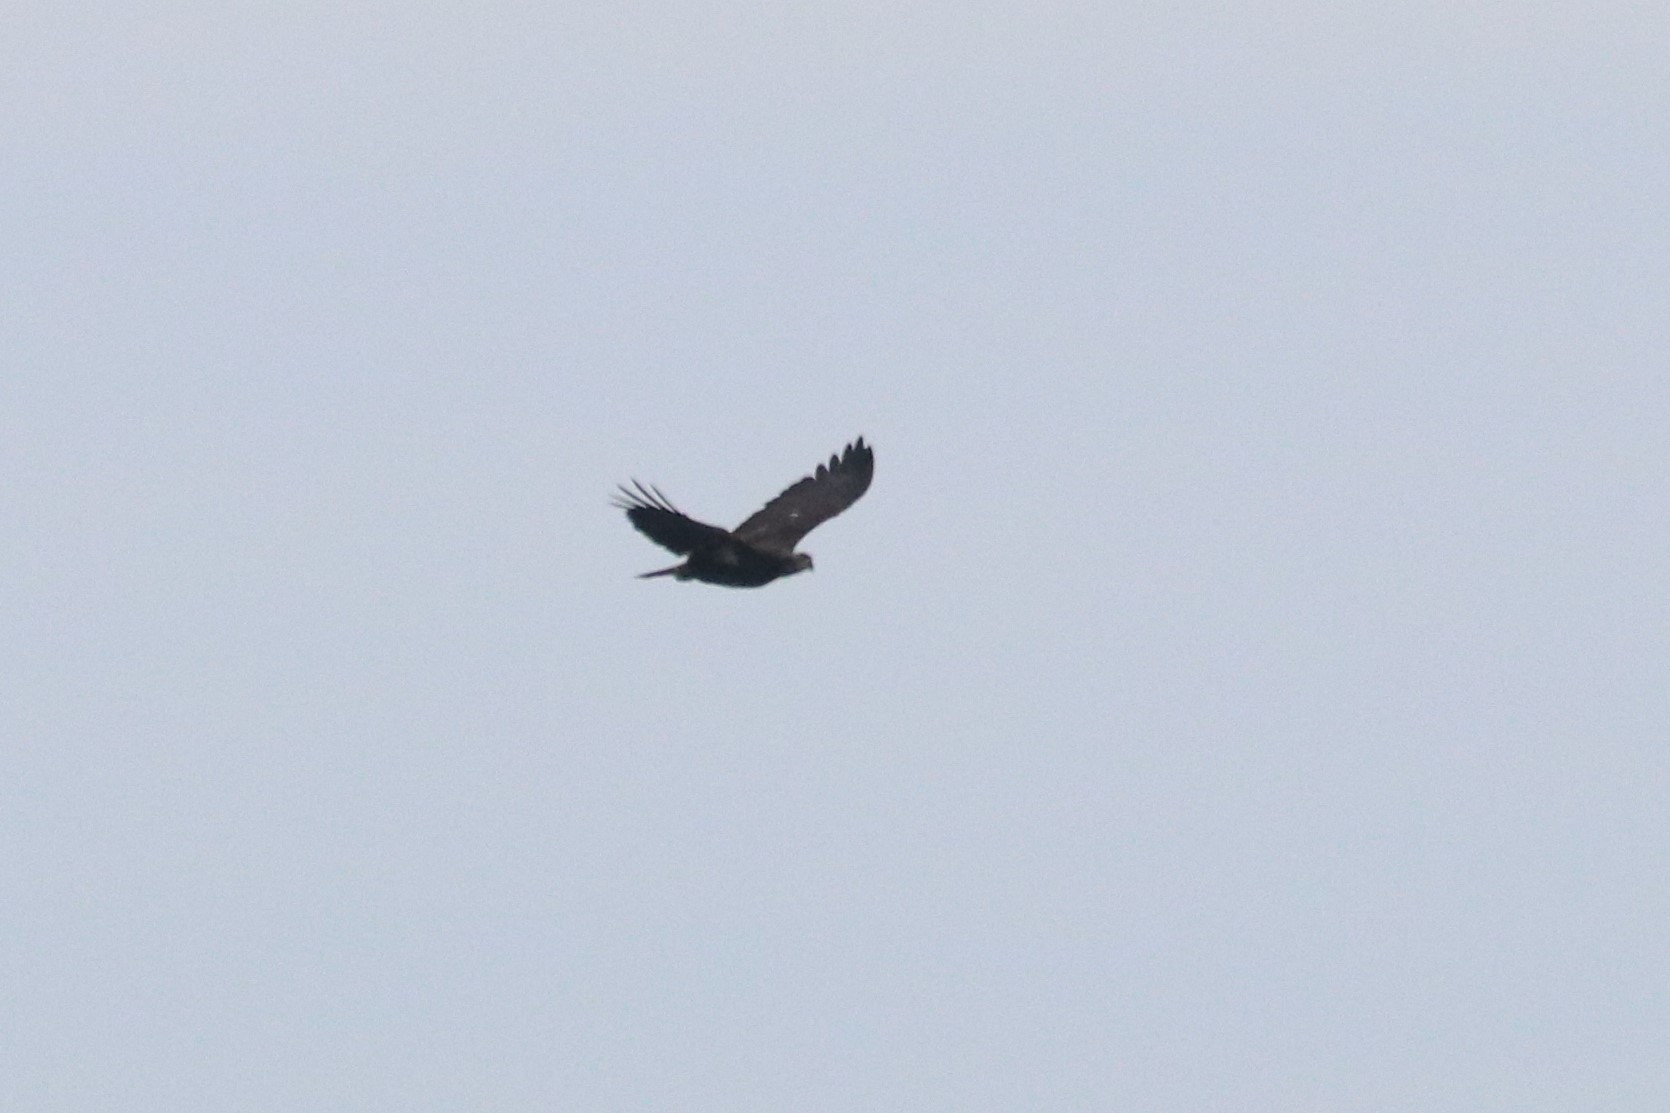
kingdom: Animalia
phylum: Chordata
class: Aves
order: Accipitriformes
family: Accipitridae
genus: Haliaeetus
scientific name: Haliaeetus leucocephalus
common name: Bald eagle
